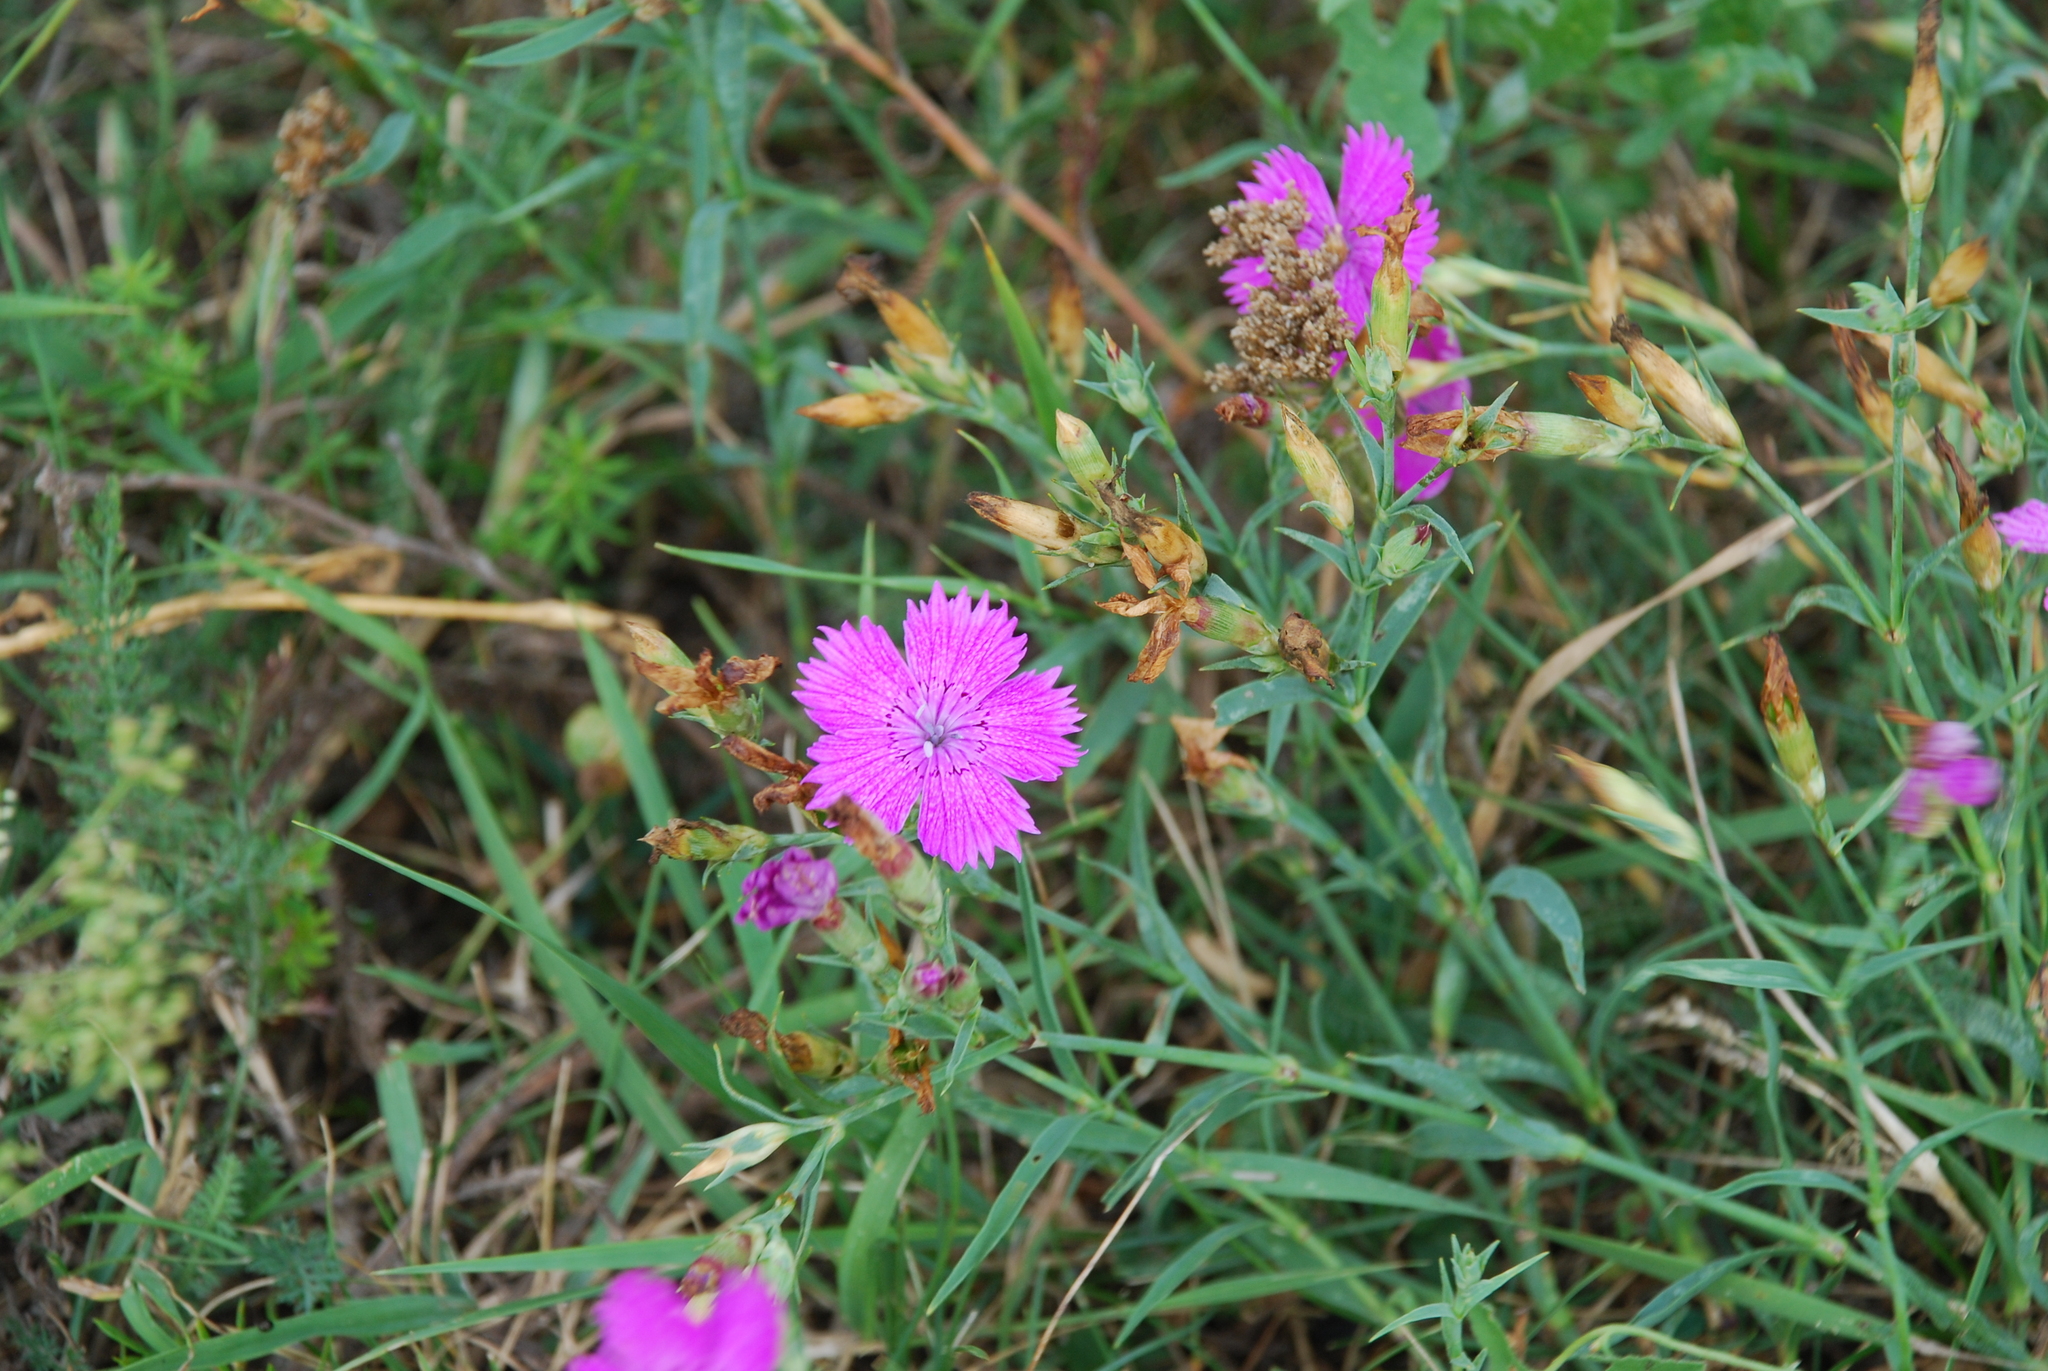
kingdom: Plantae
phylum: Tracheophyta
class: Magnoliopsida
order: Caryophyllales
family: Caryophyllaceae
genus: Dianthus
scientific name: Dianthus chinensis
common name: Rainbow pink
